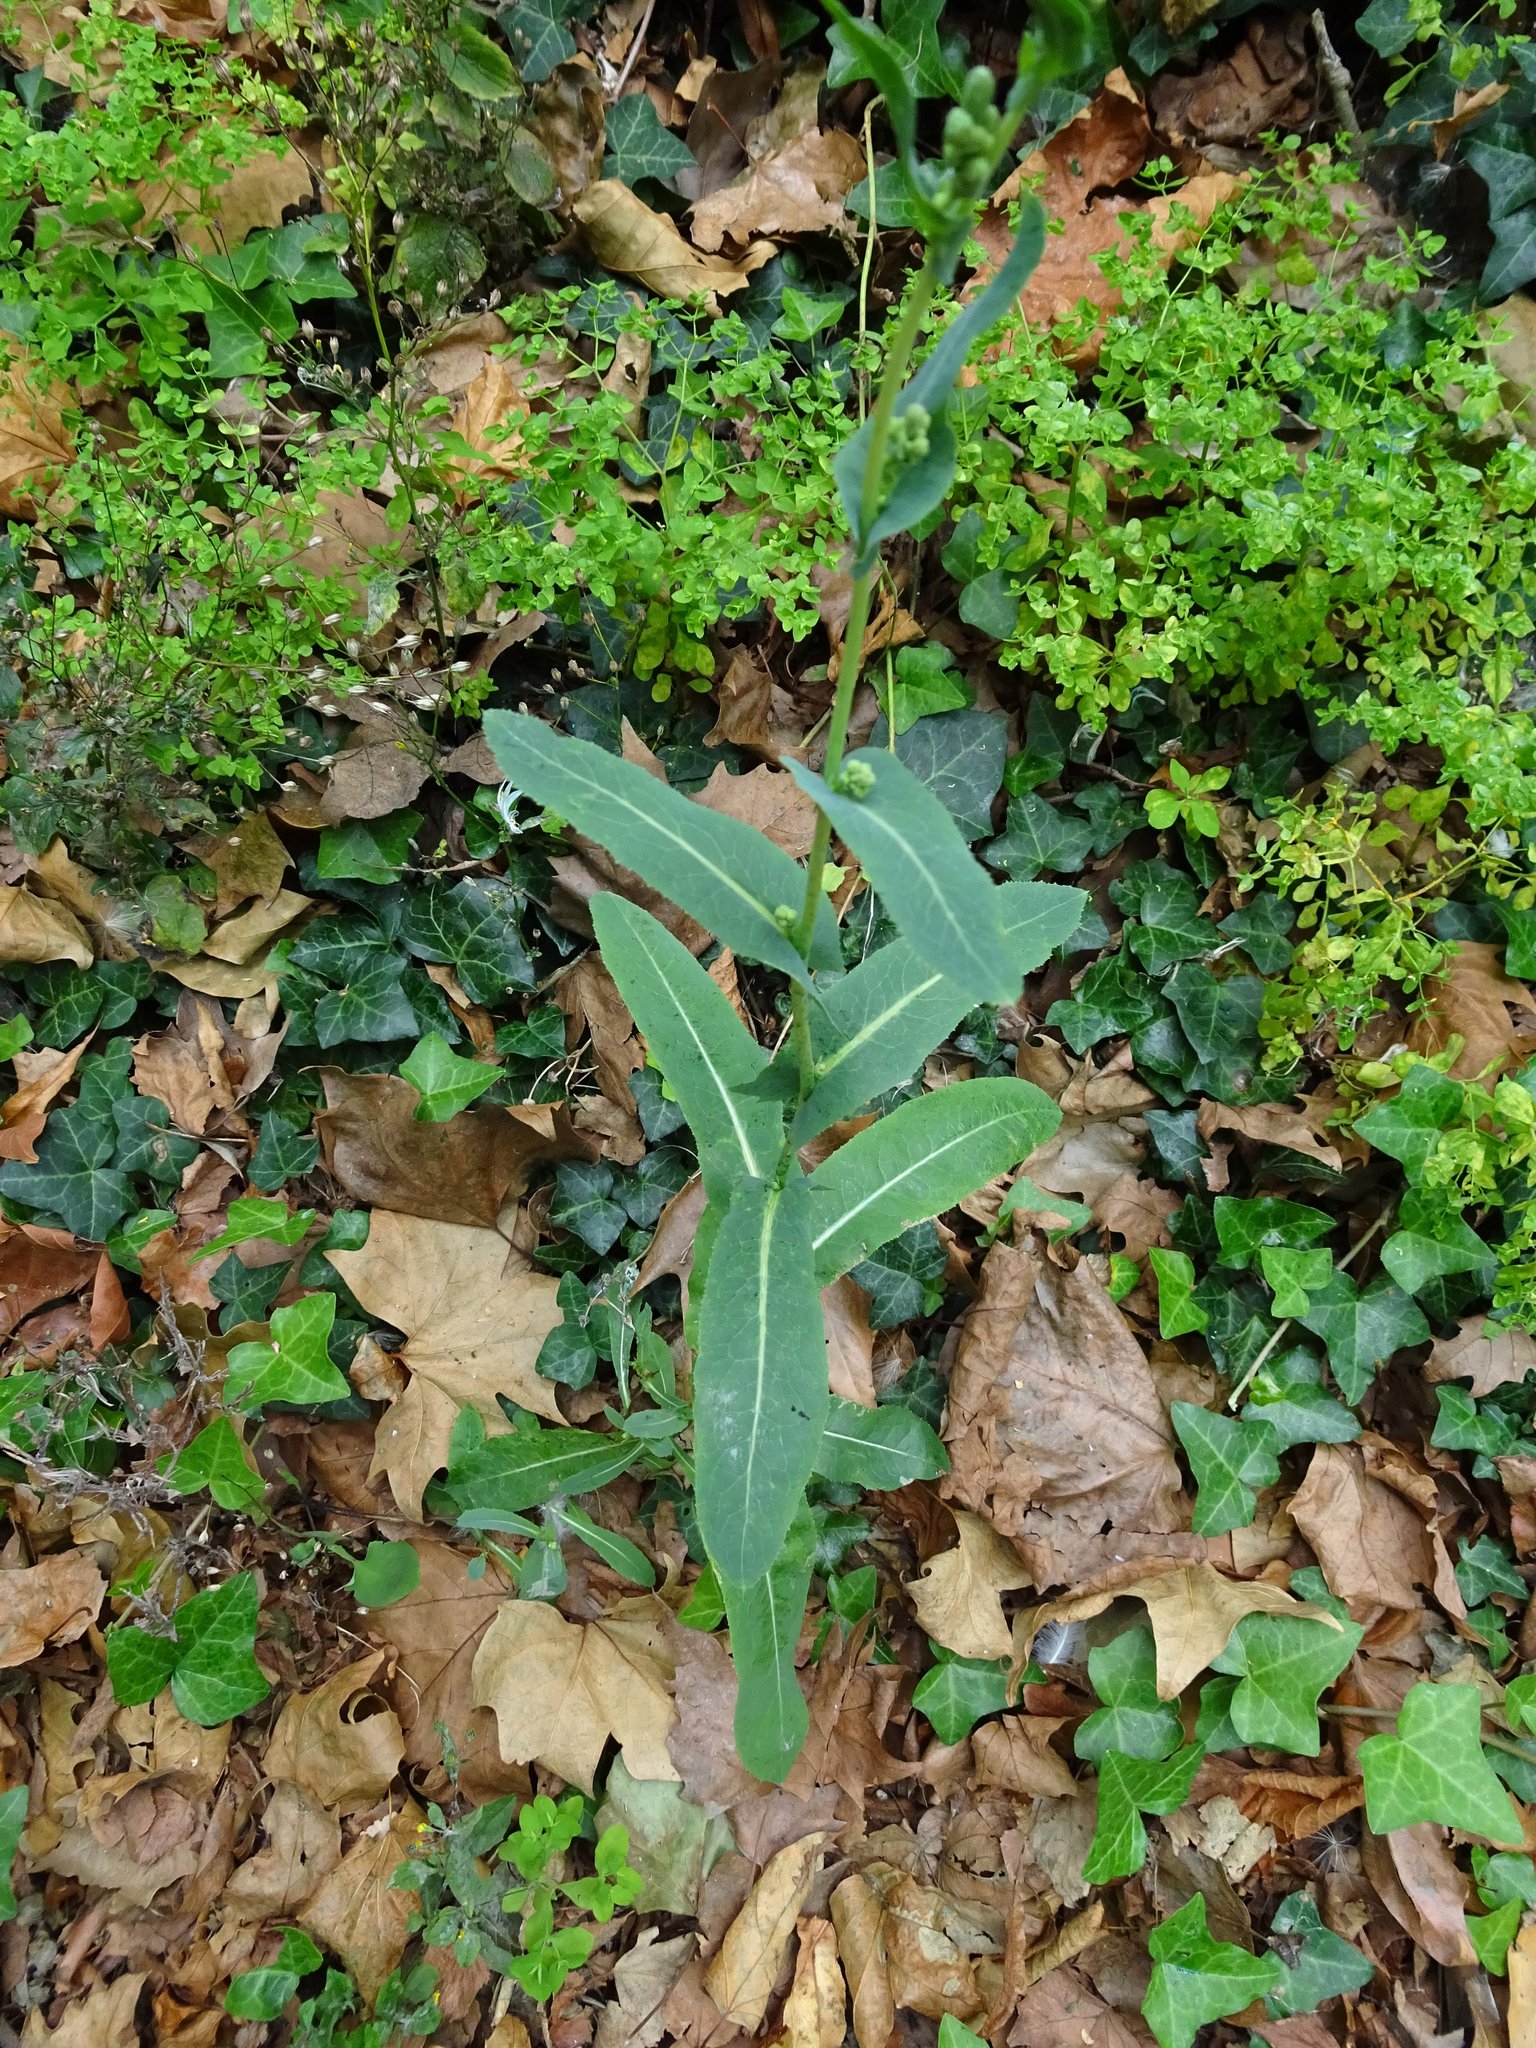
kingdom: Plantae
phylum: Tracheophyta
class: Magnoliopsida
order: Asterales
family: Asteraceae
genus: Lactuca
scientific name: Lactuca serriola
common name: Prickly lettuce
